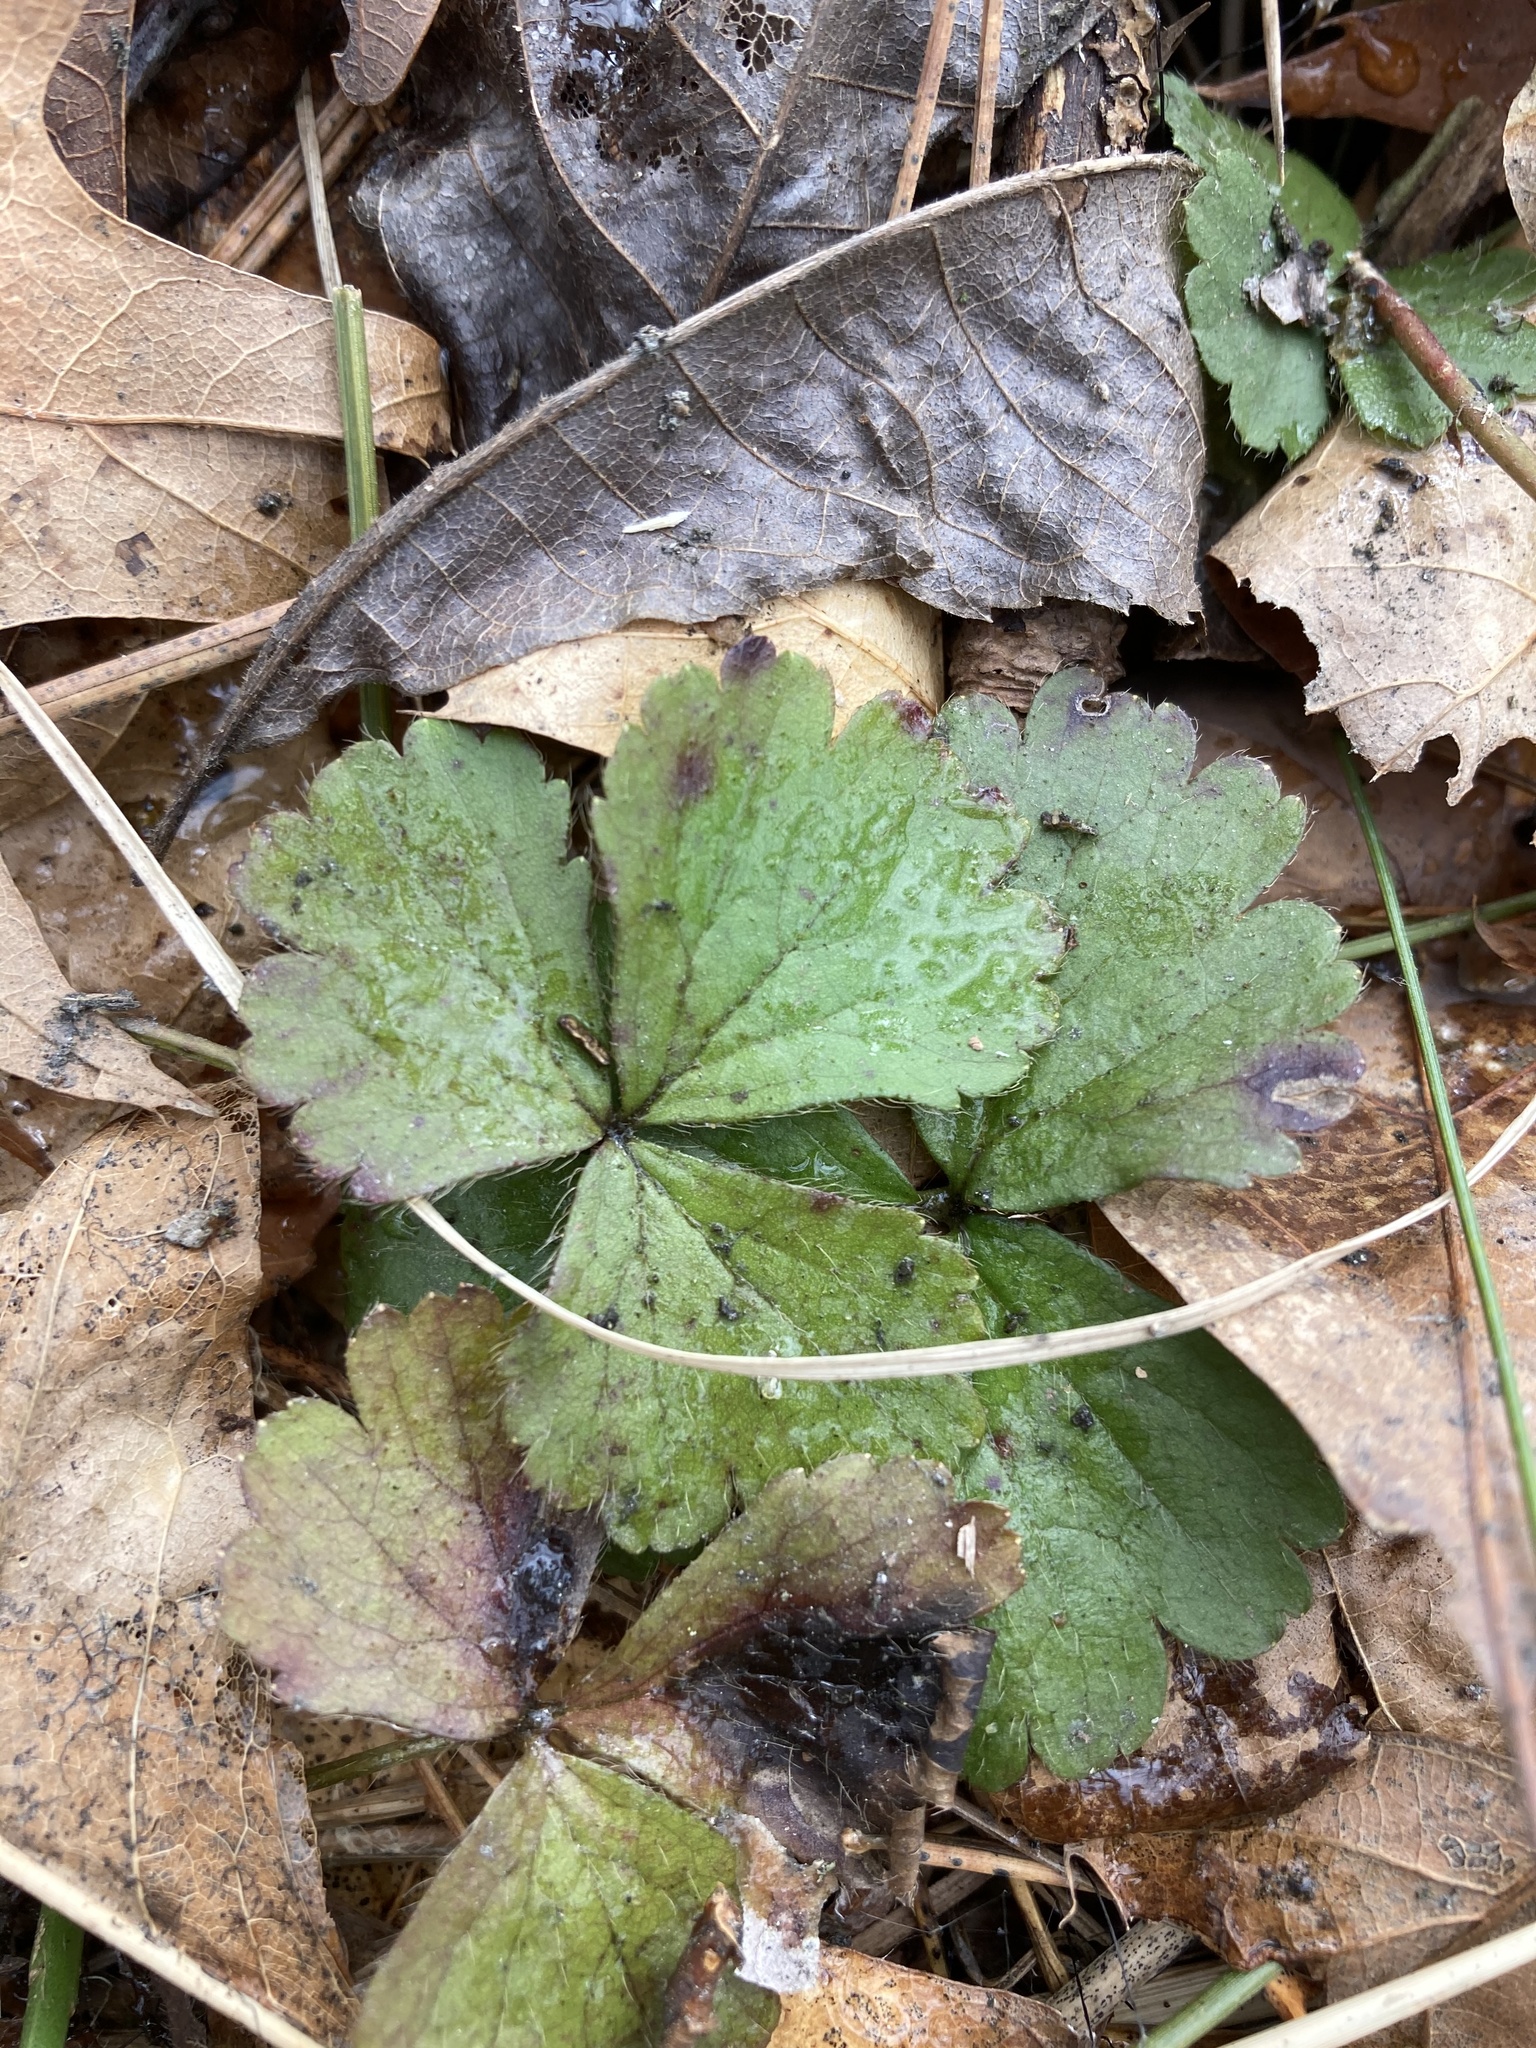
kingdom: Plantae
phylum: Tracheophyta
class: Magnoliopsida
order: Rosales
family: Rosaceae
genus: Geum
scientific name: Geum fragarioides
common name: Appalachian barren strawberry
